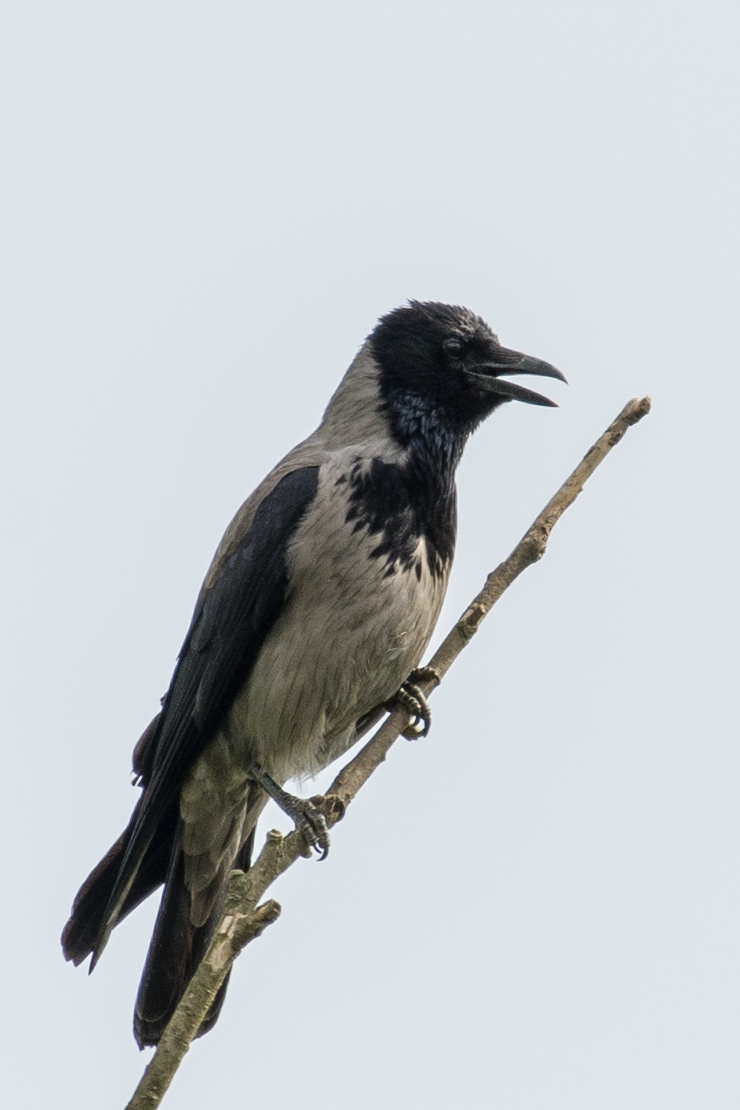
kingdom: Animalia
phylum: Chordata
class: Aves
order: Passeriformes
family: Corvidae
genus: Corvus
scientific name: Corvus cornix
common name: Hooded crow
